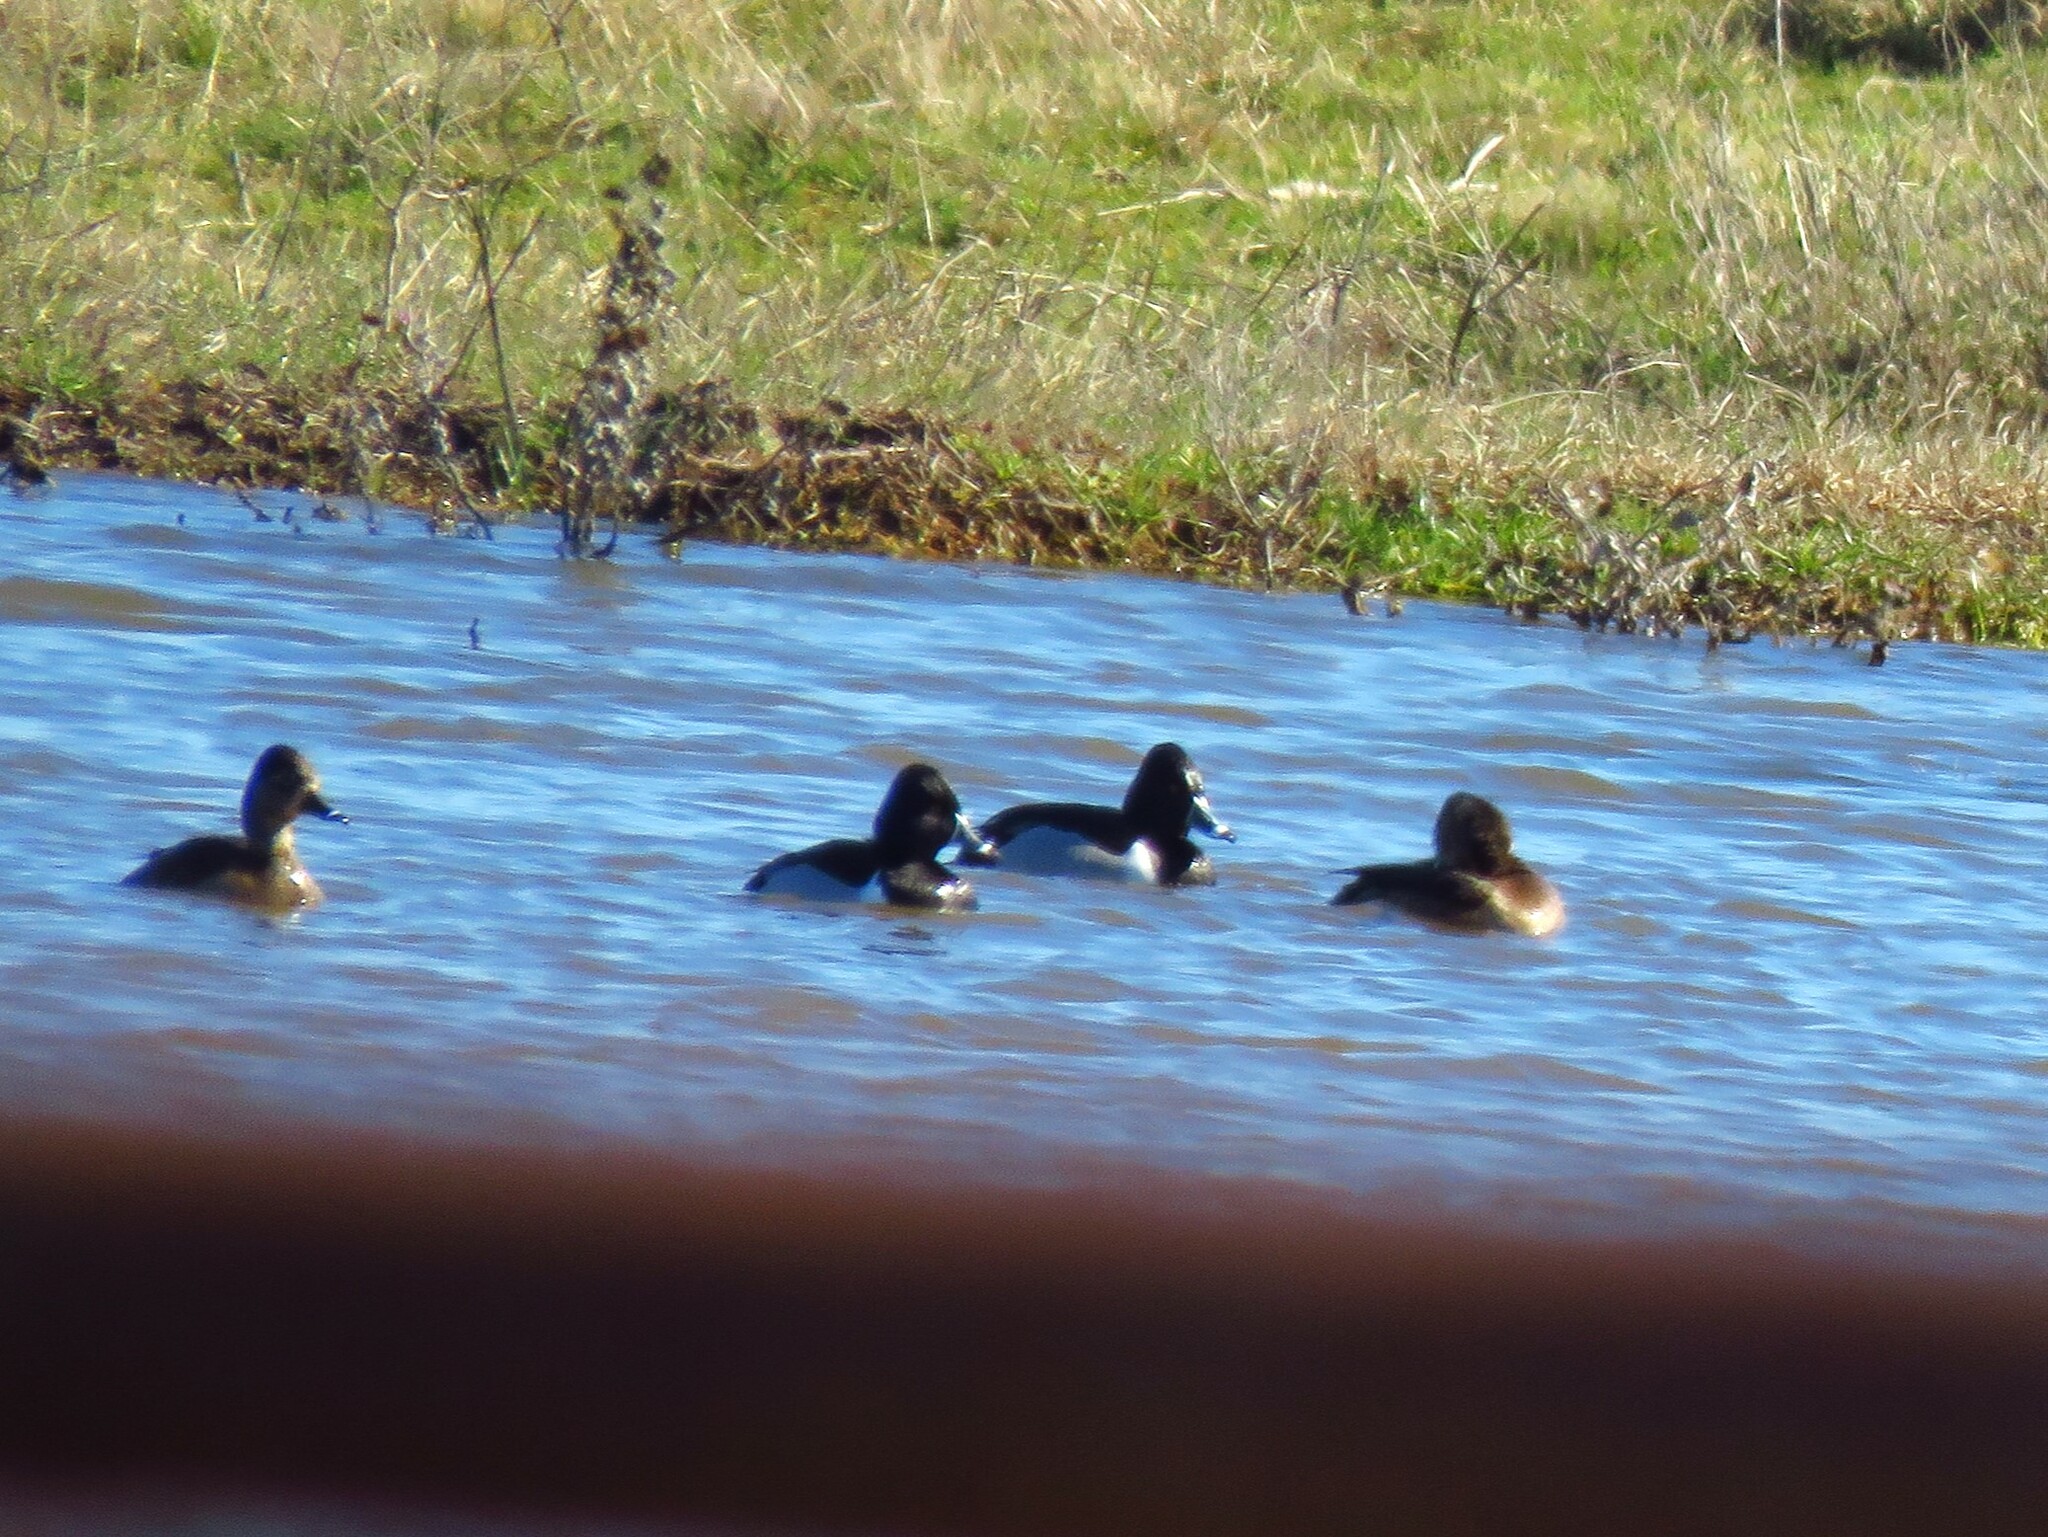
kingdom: Animalia
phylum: Chordata
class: Aves
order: Anseriformes
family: Anatidae
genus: Aythya
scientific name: Aythya collaris
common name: Ring-necked duck
